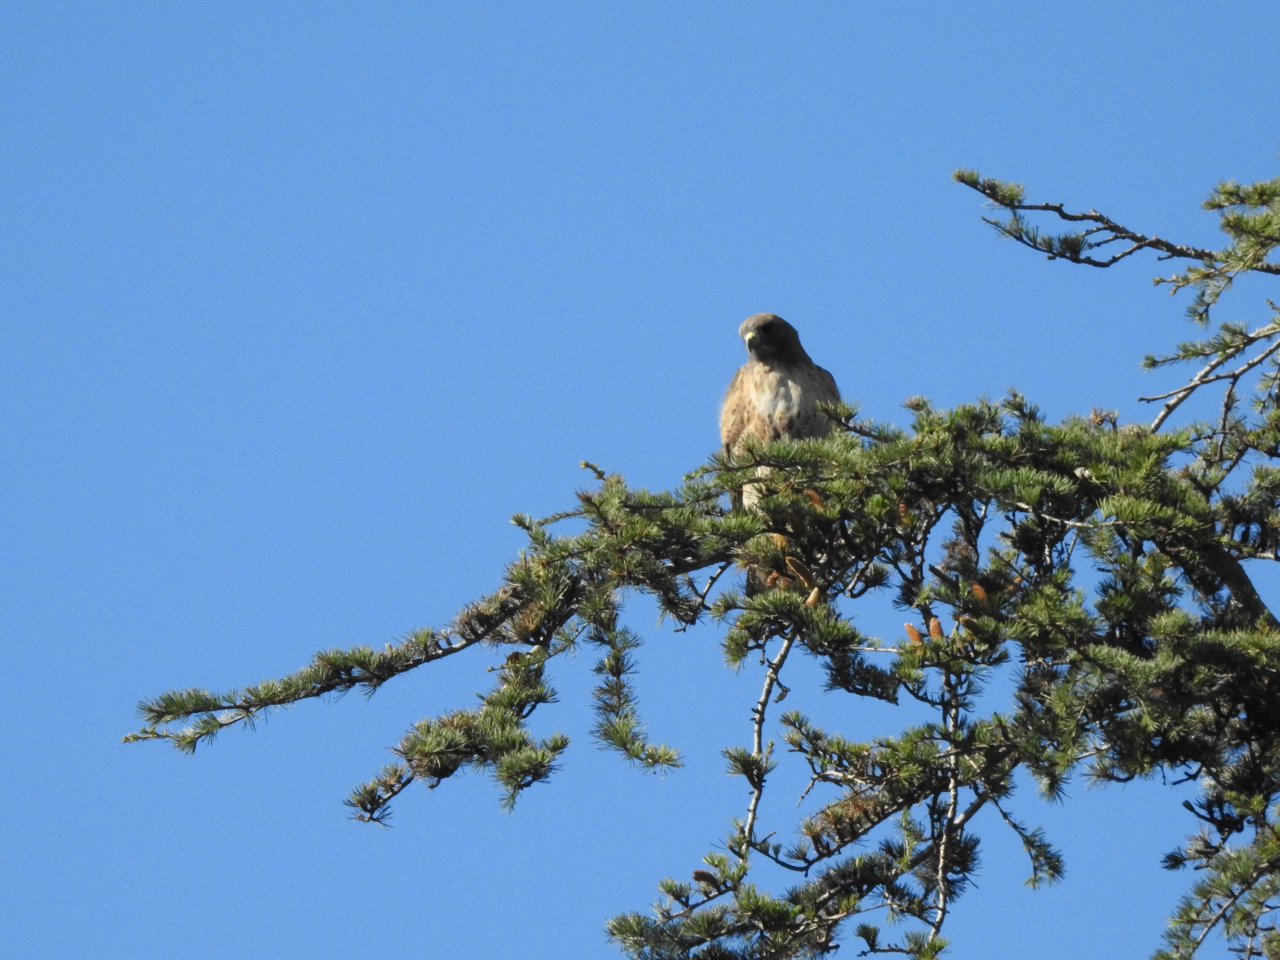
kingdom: Animalia
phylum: Chordata
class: Aves
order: Accipitriformes
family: Accipitridae
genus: Buteo
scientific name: Buteo jamaicensis
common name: Red-tailed hawk
